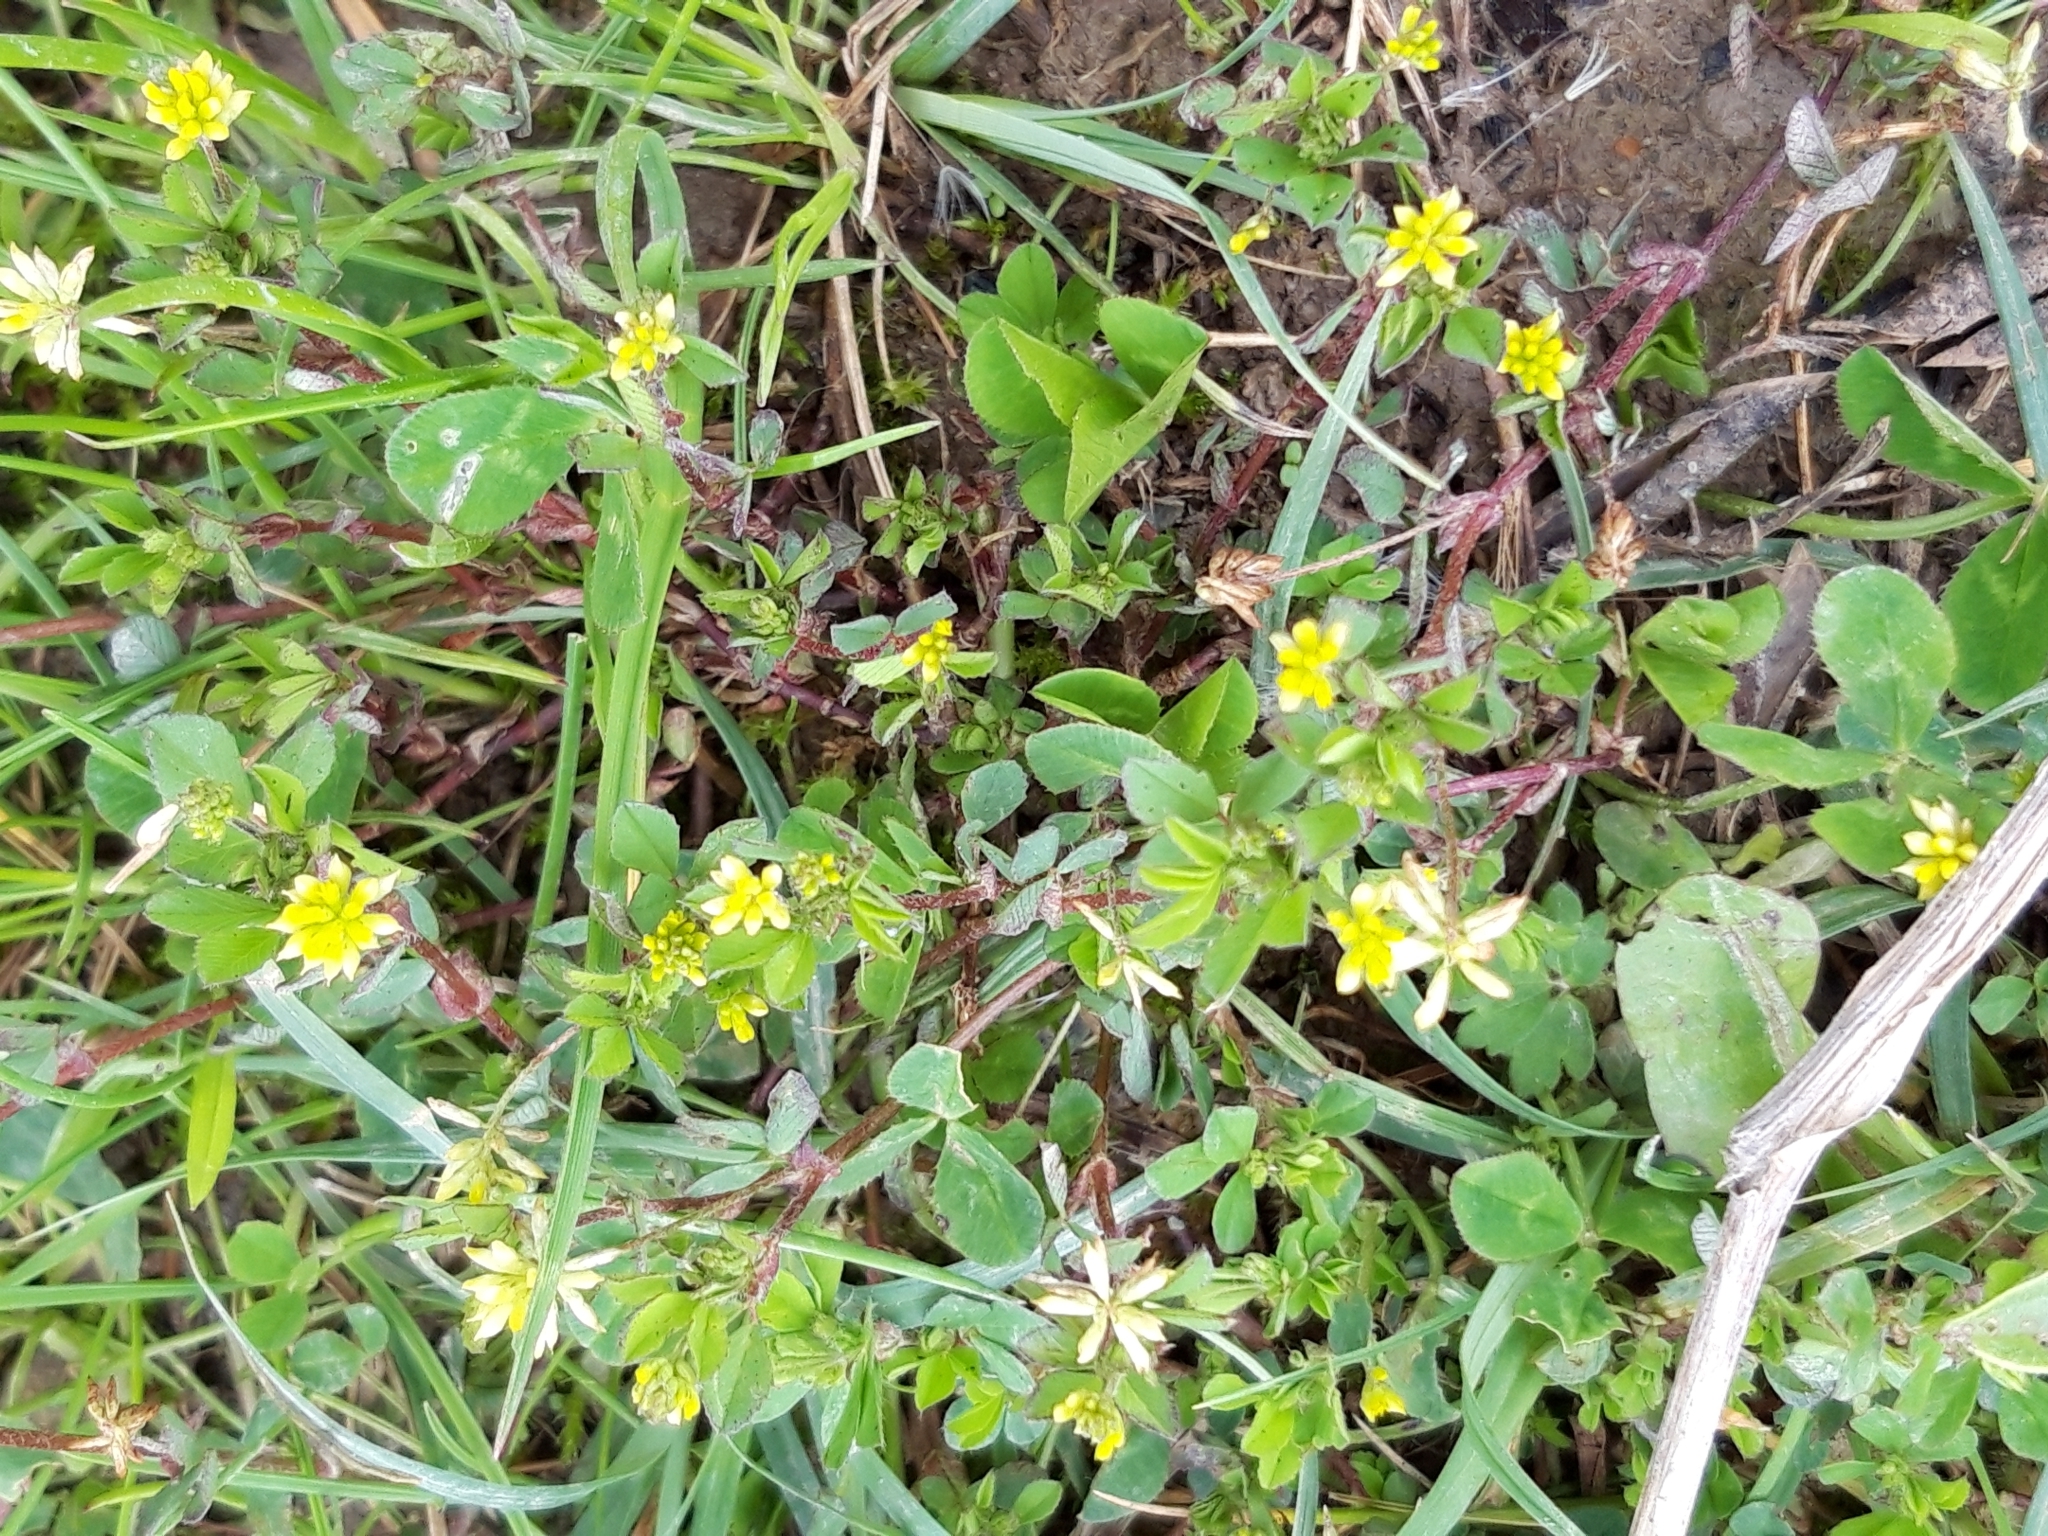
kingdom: Plantae
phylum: Tracheophyta
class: Magnoliopsida
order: Fabales
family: Fabaceae
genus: Trifolium
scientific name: Trifolium dubium
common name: Suckling clover
